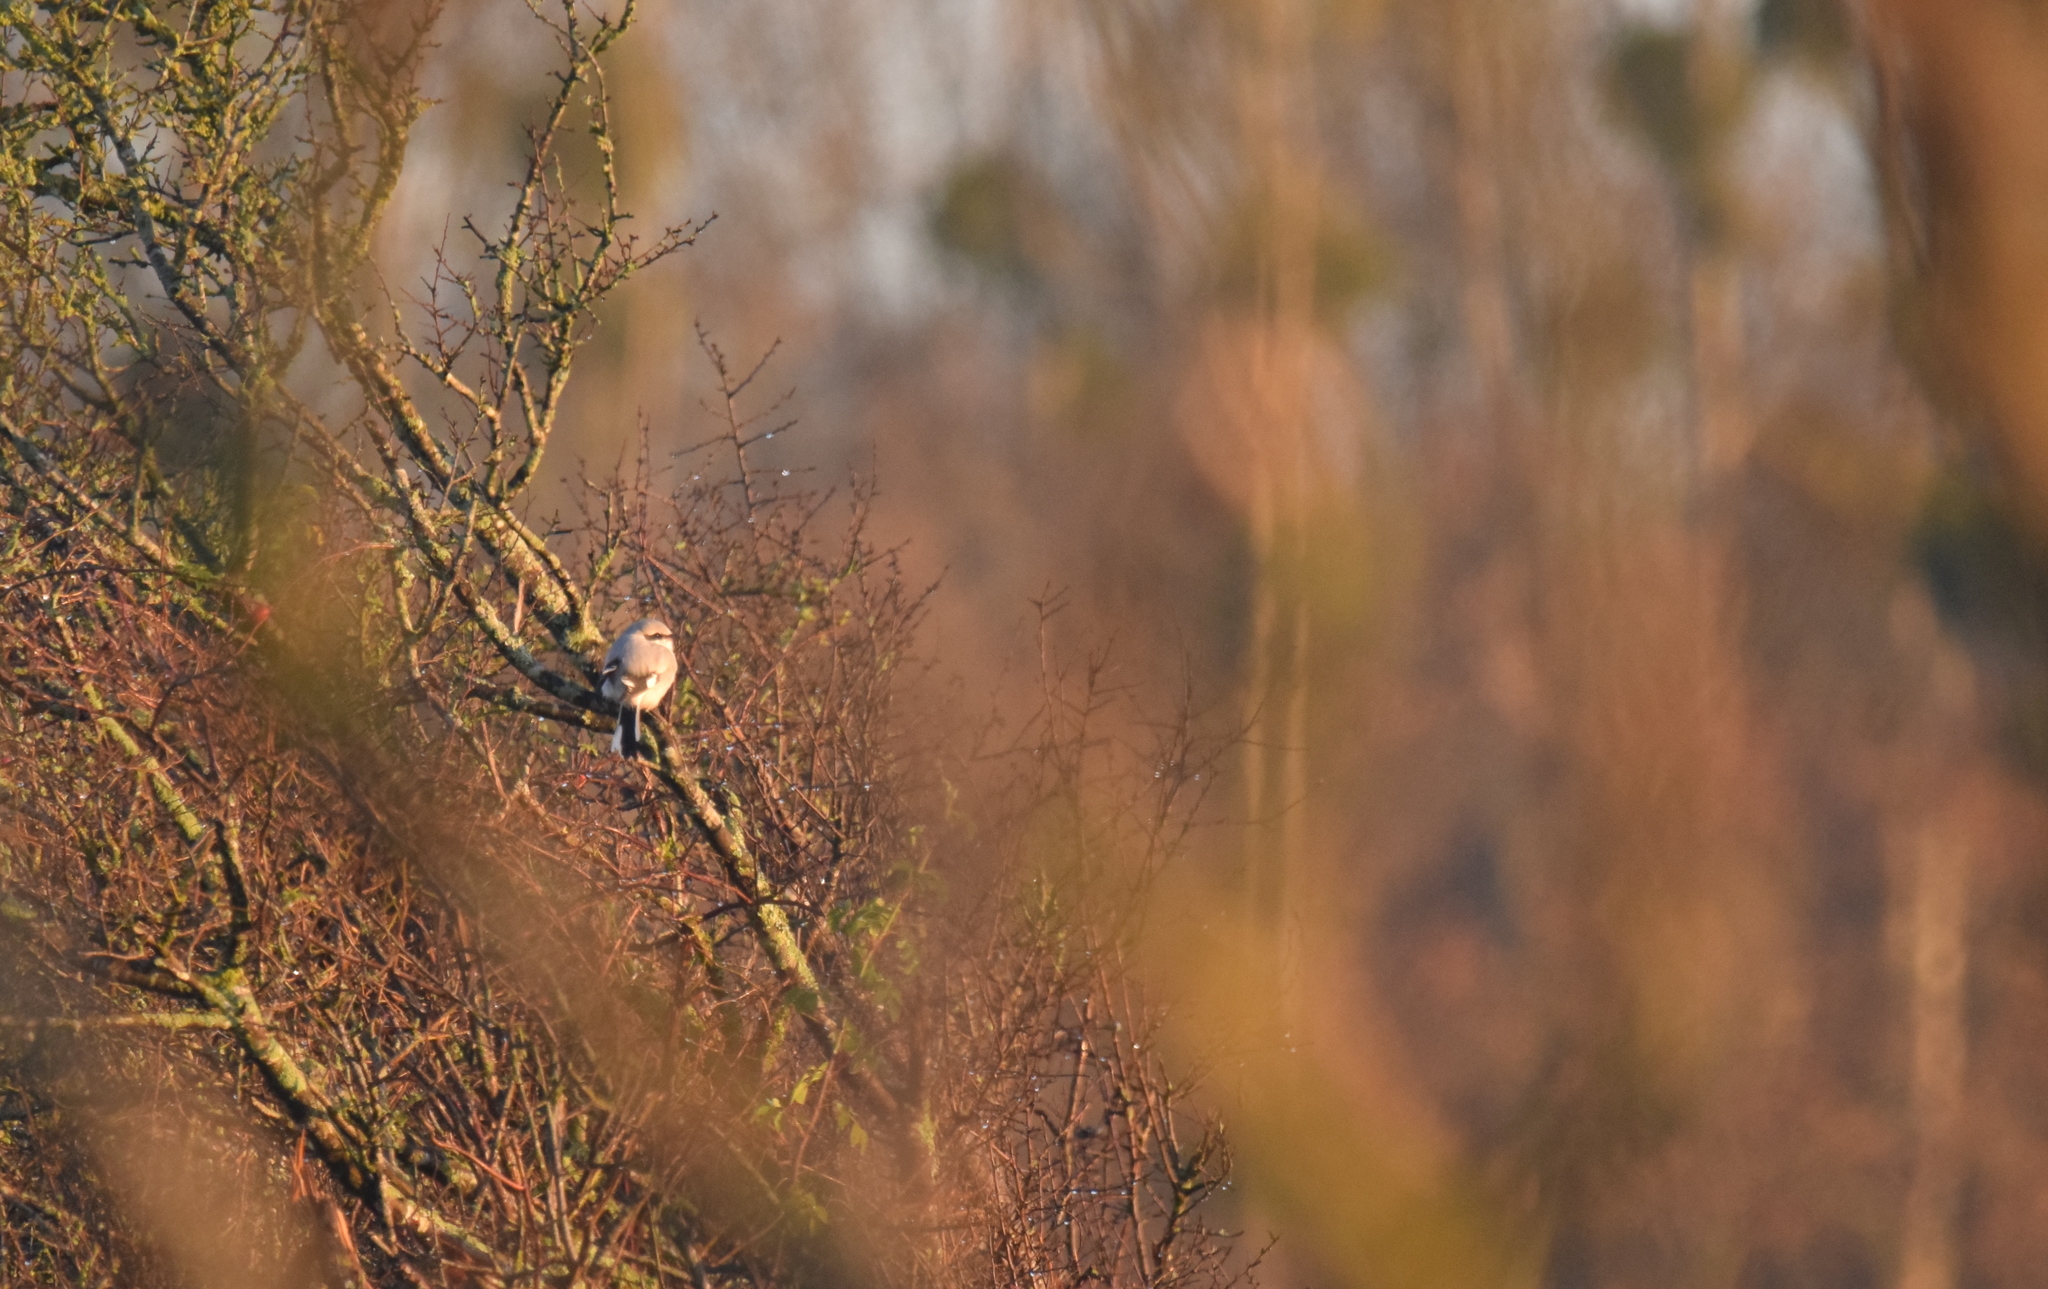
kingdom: Animalia
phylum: Chordata
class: Aves
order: Passeriformes
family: Laniidae
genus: Lanius
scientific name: Lanius excubitor
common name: Great grey shrike
